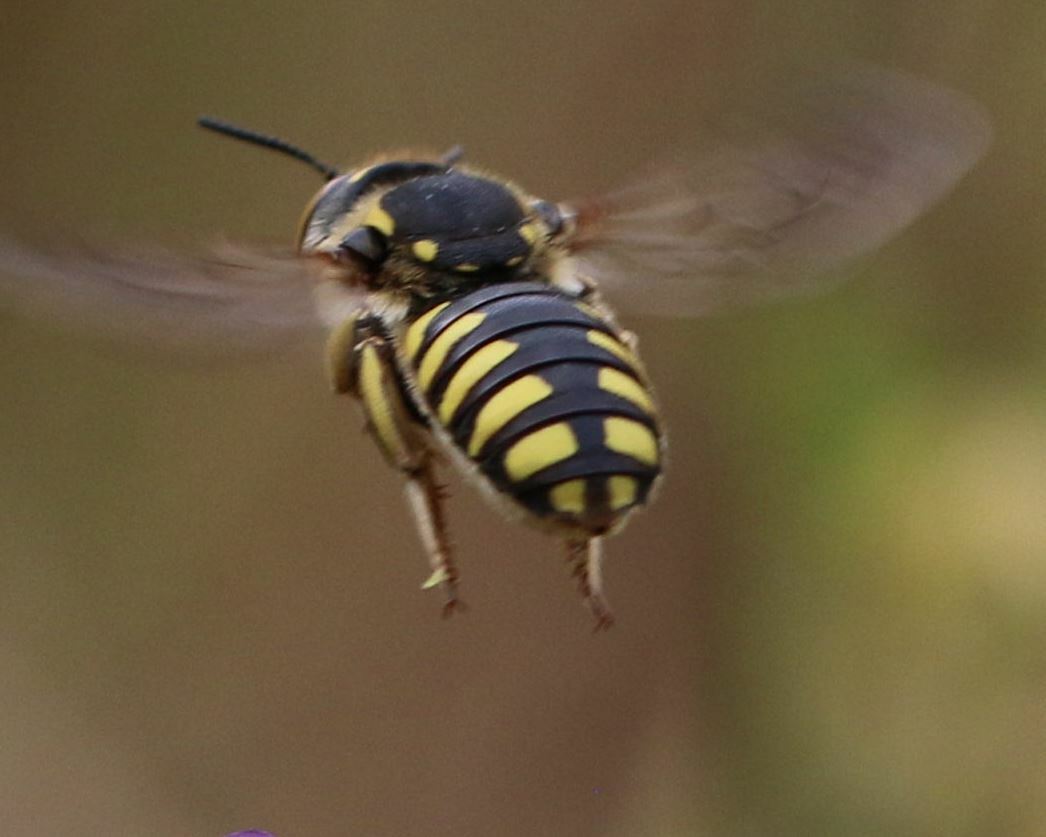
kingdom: Animalia
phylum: Arthropoda
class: Insecta
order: Hymenoptera
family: Megachilidae
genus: Anthidium
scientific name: Anthidium florentinum
